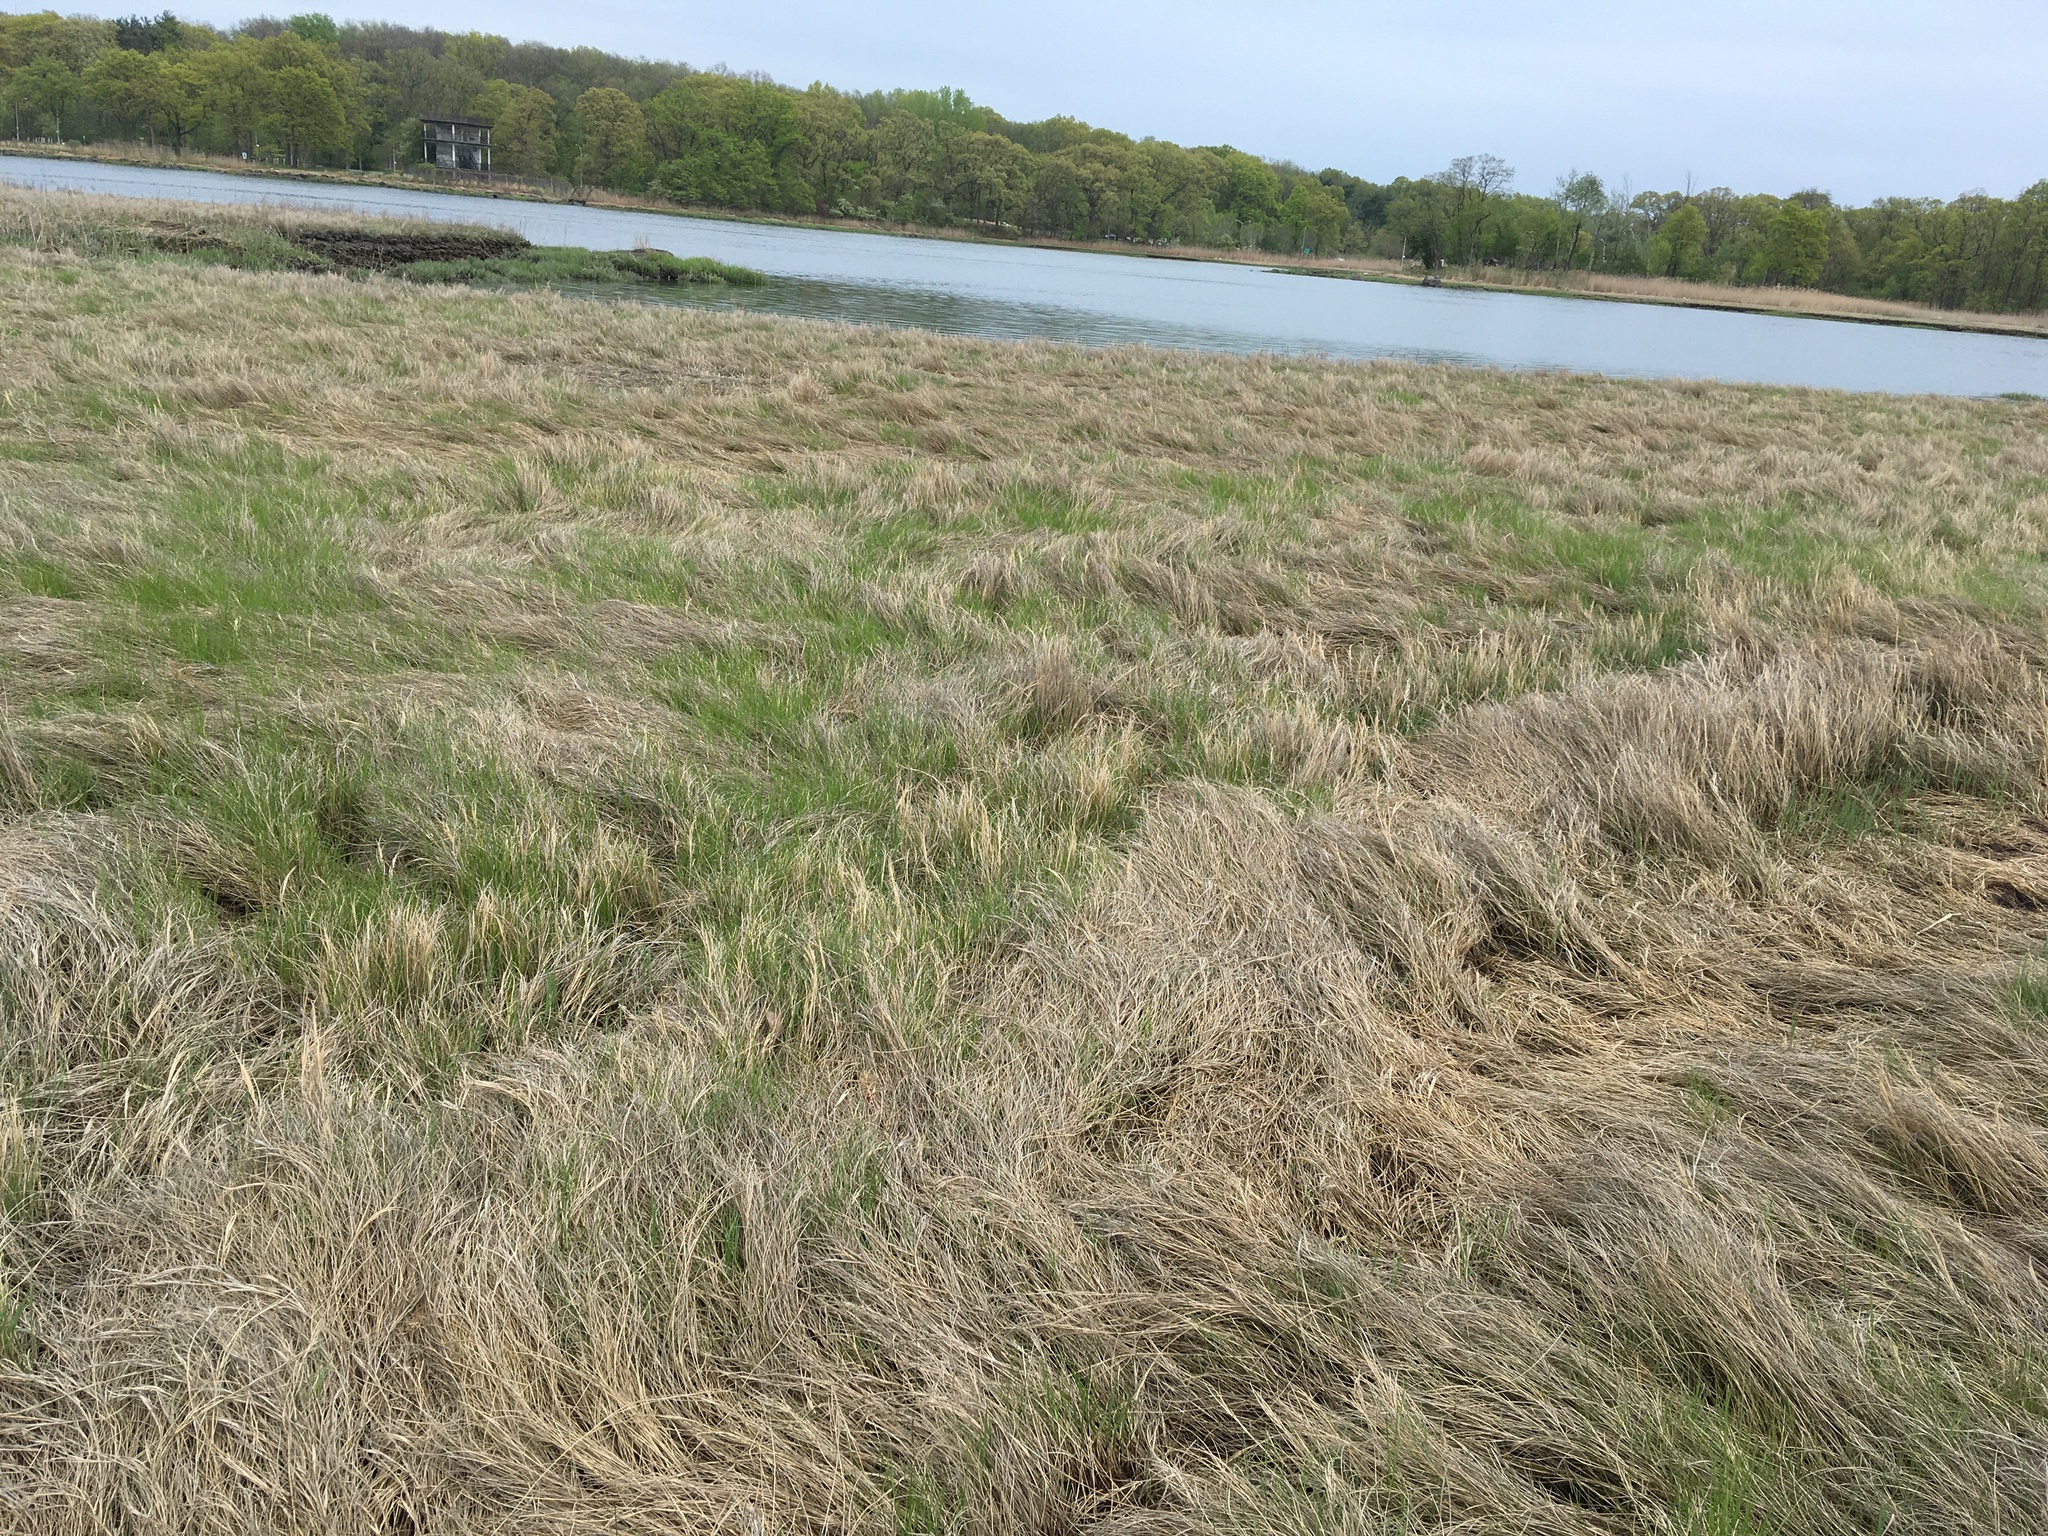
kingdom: Plantae
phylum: Tracheophyta
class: Liliopsida
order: Poales
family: Poaceae
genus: Sporobolus
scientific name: Sporobolus pumilus
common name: Highwater grass
